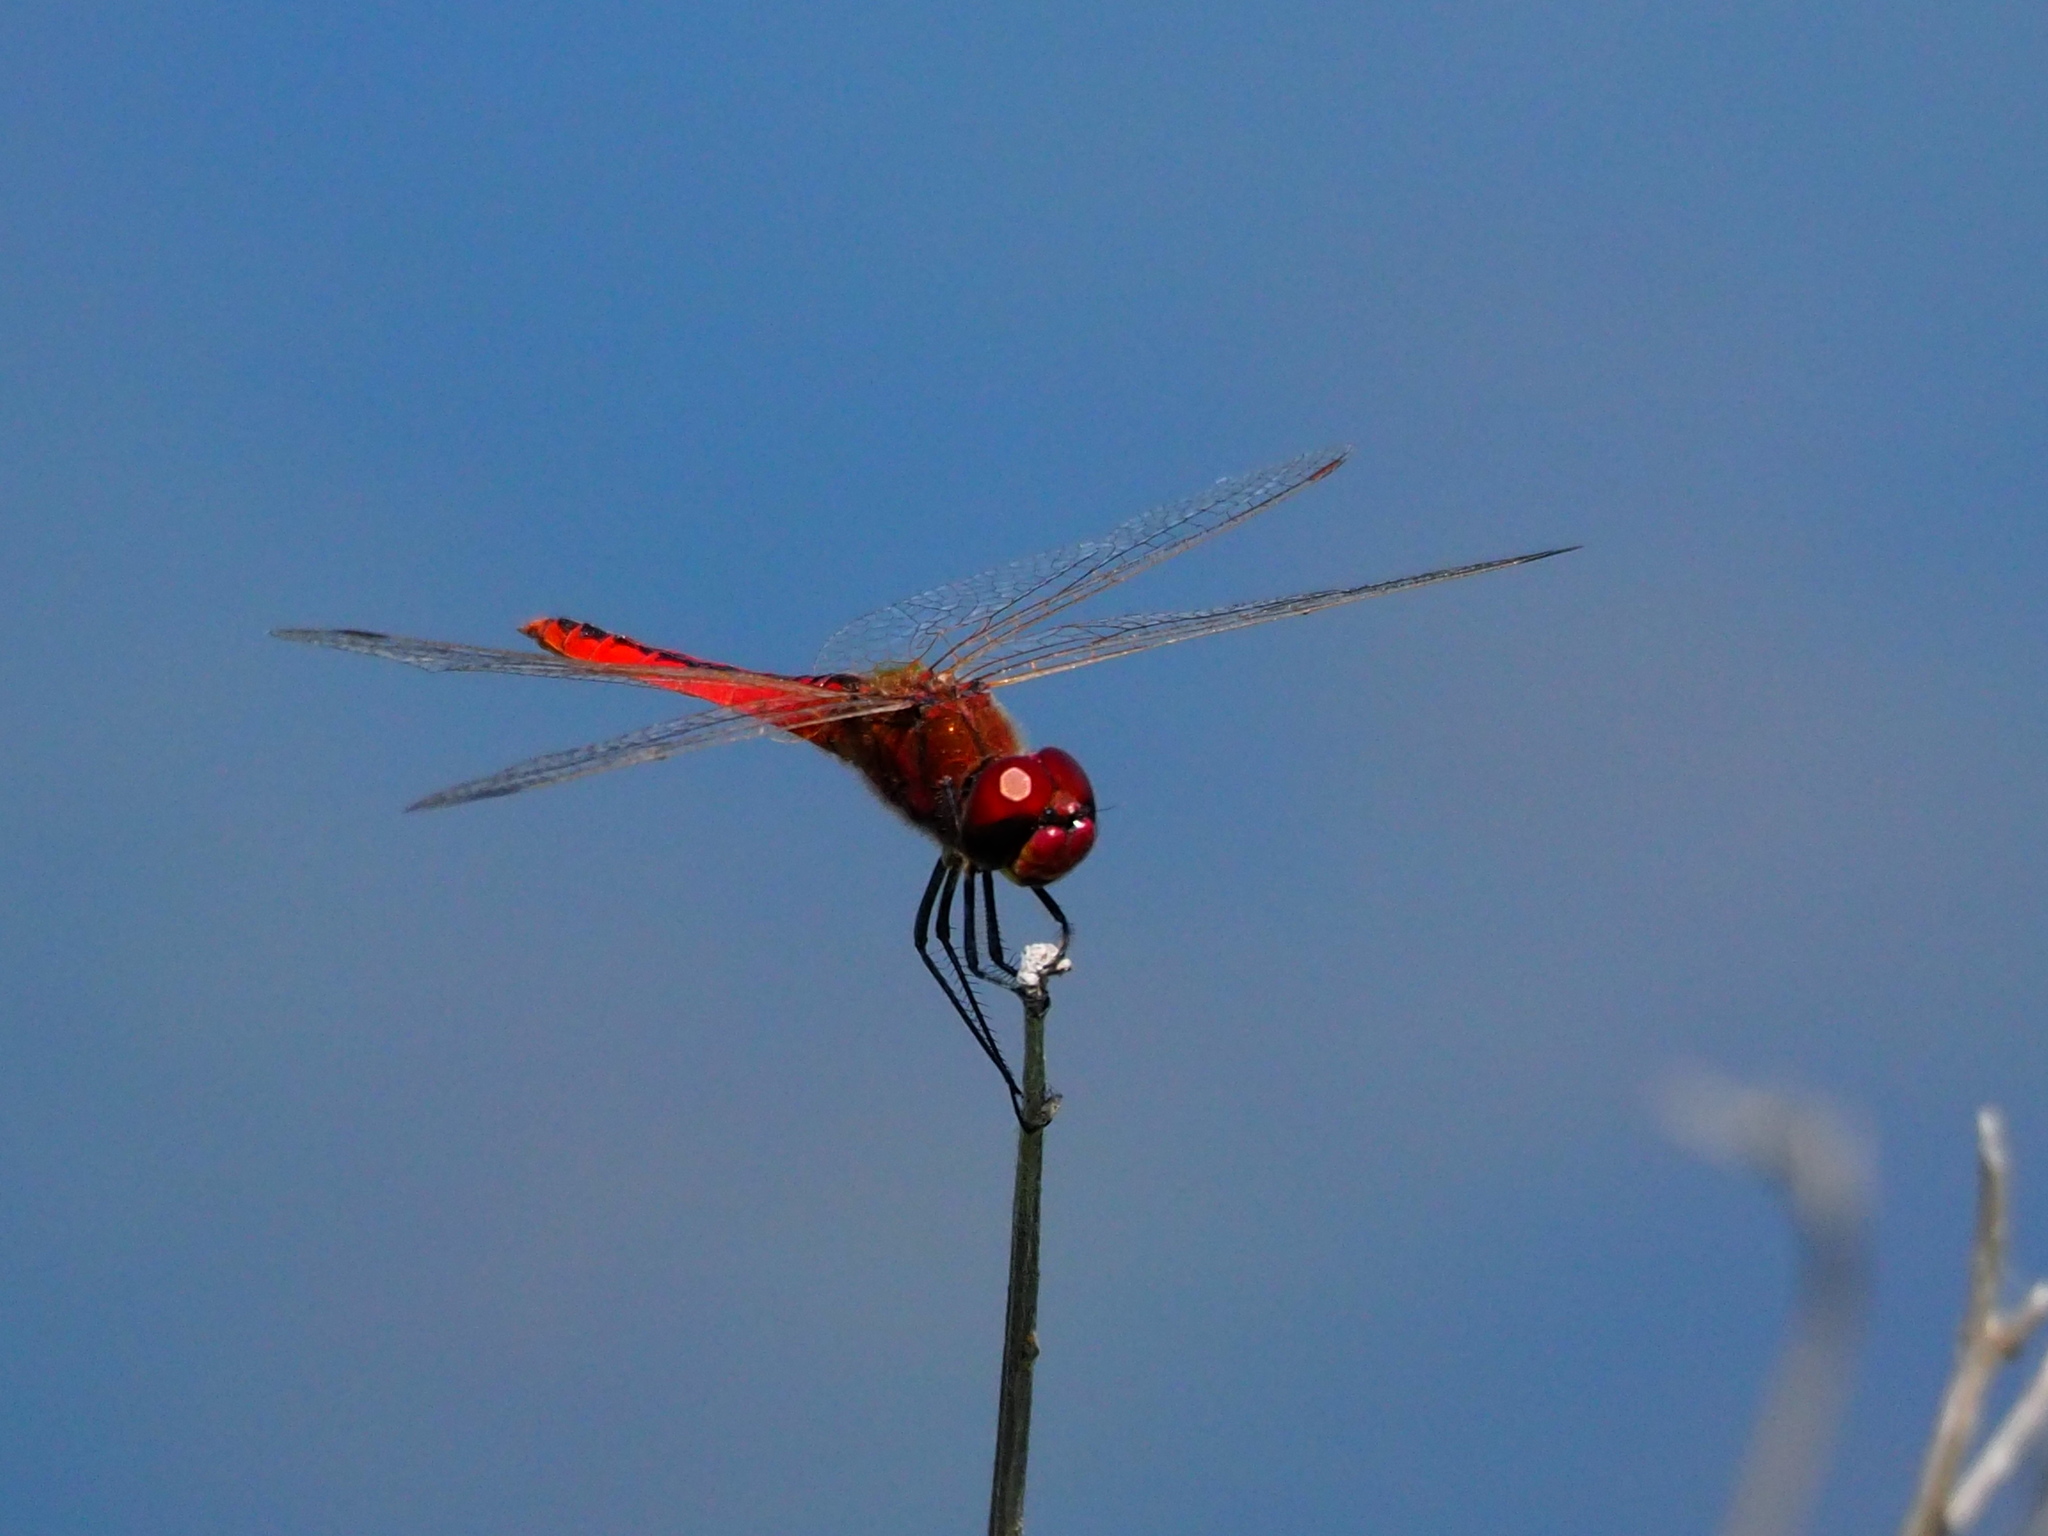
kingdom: Animalia
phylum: Arthropoda
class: Insecta
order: Odonata
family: Libellulidae
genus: Macrodiplax
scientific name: Macrodiplax cora
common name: Coastal glider
